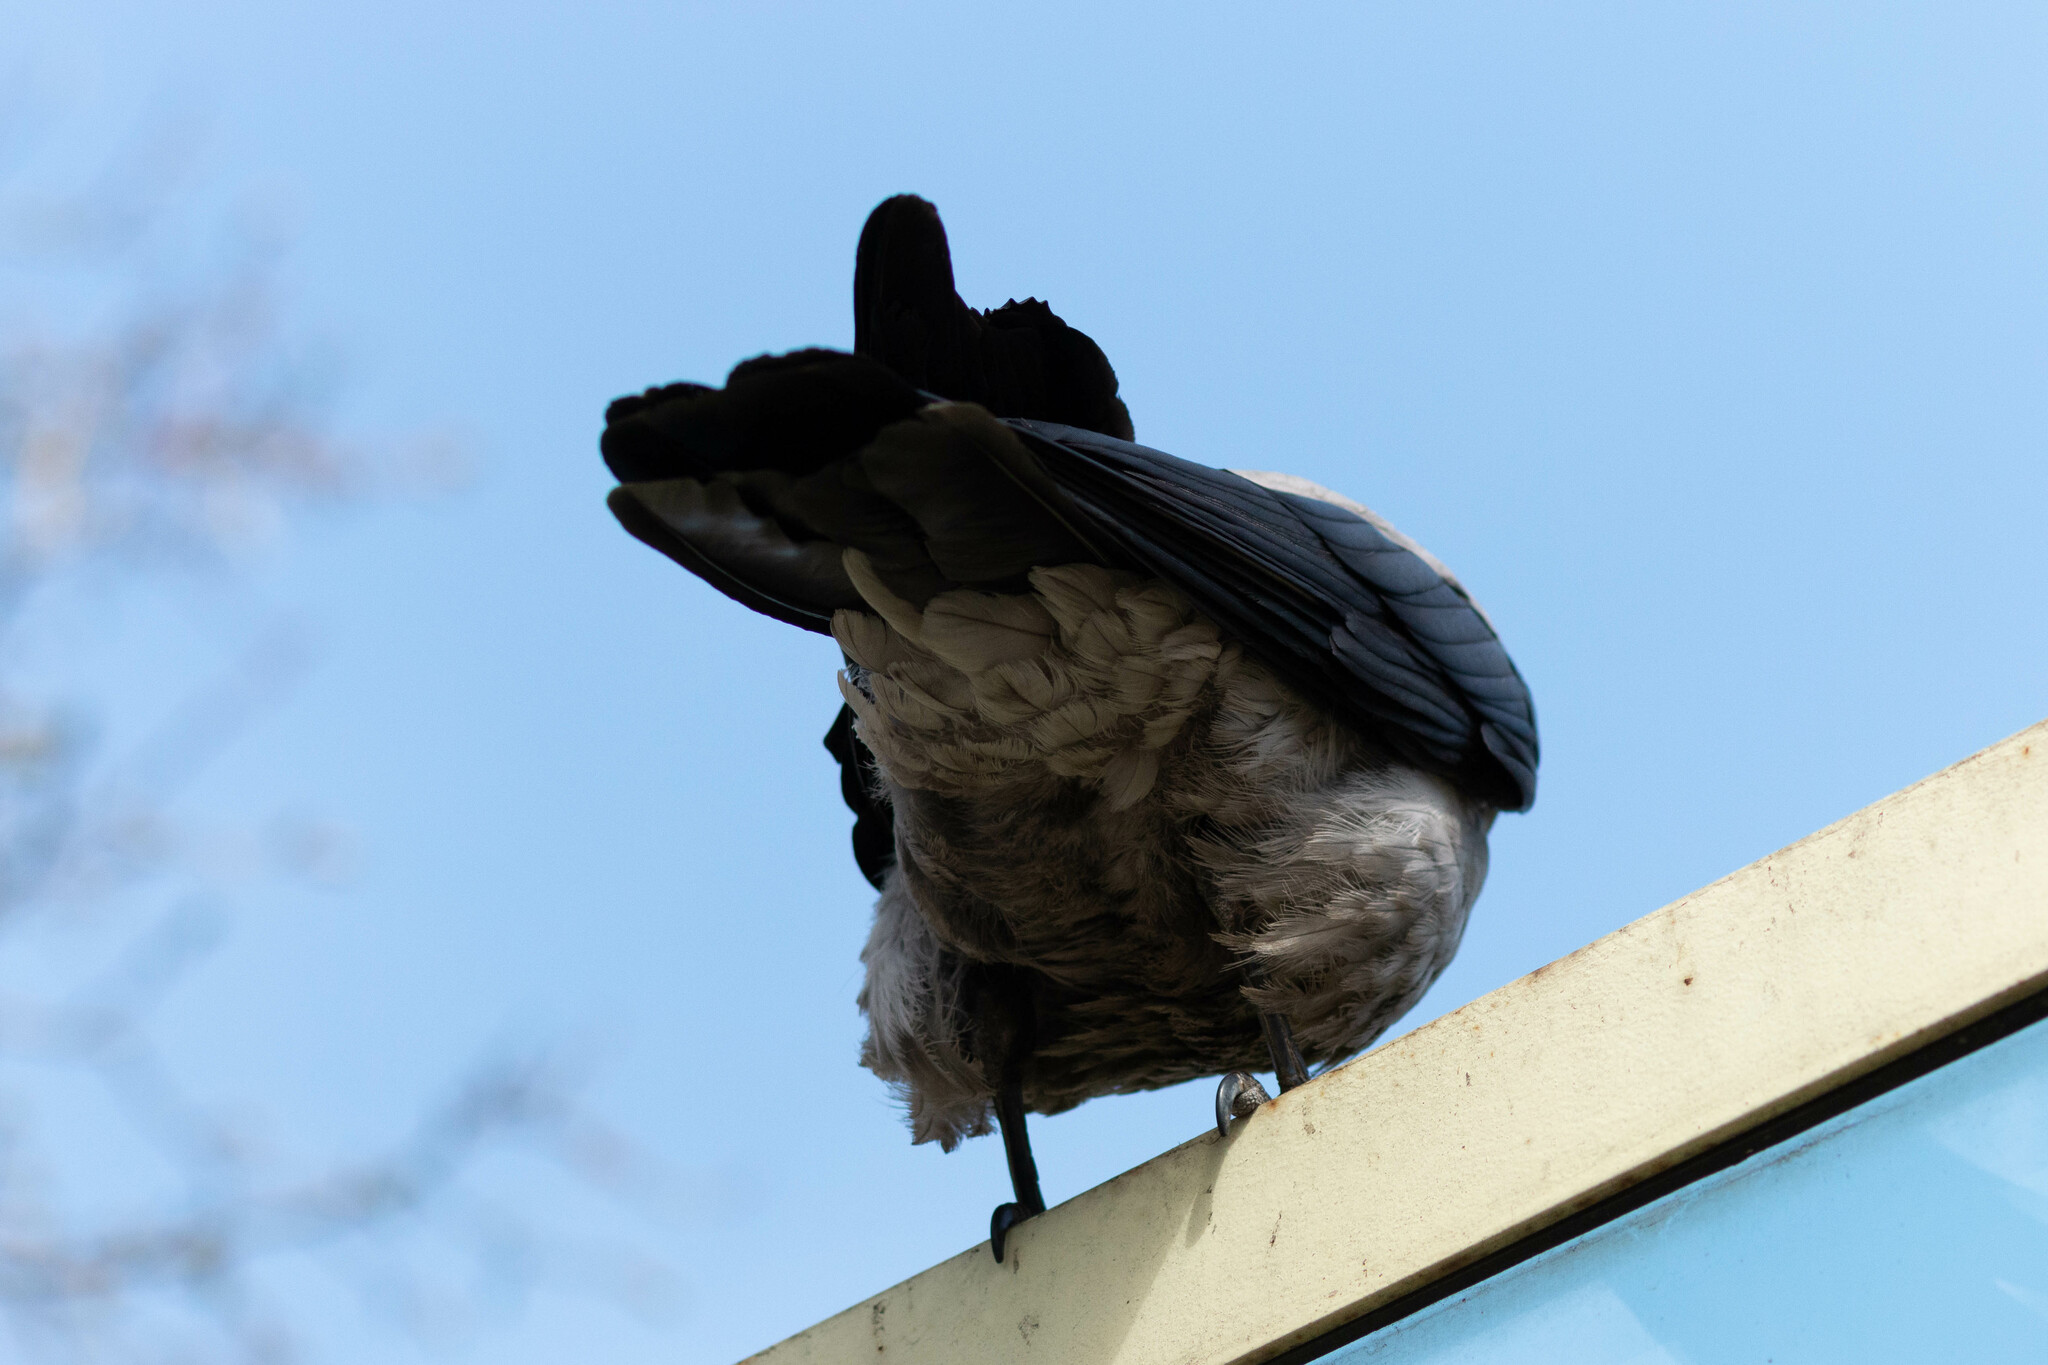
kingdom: Animalia
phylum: Chordata
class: Aves
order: Passeriformes
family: Corvidae
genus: Corvus
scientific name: Corvus cornix
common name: Hooded crow
